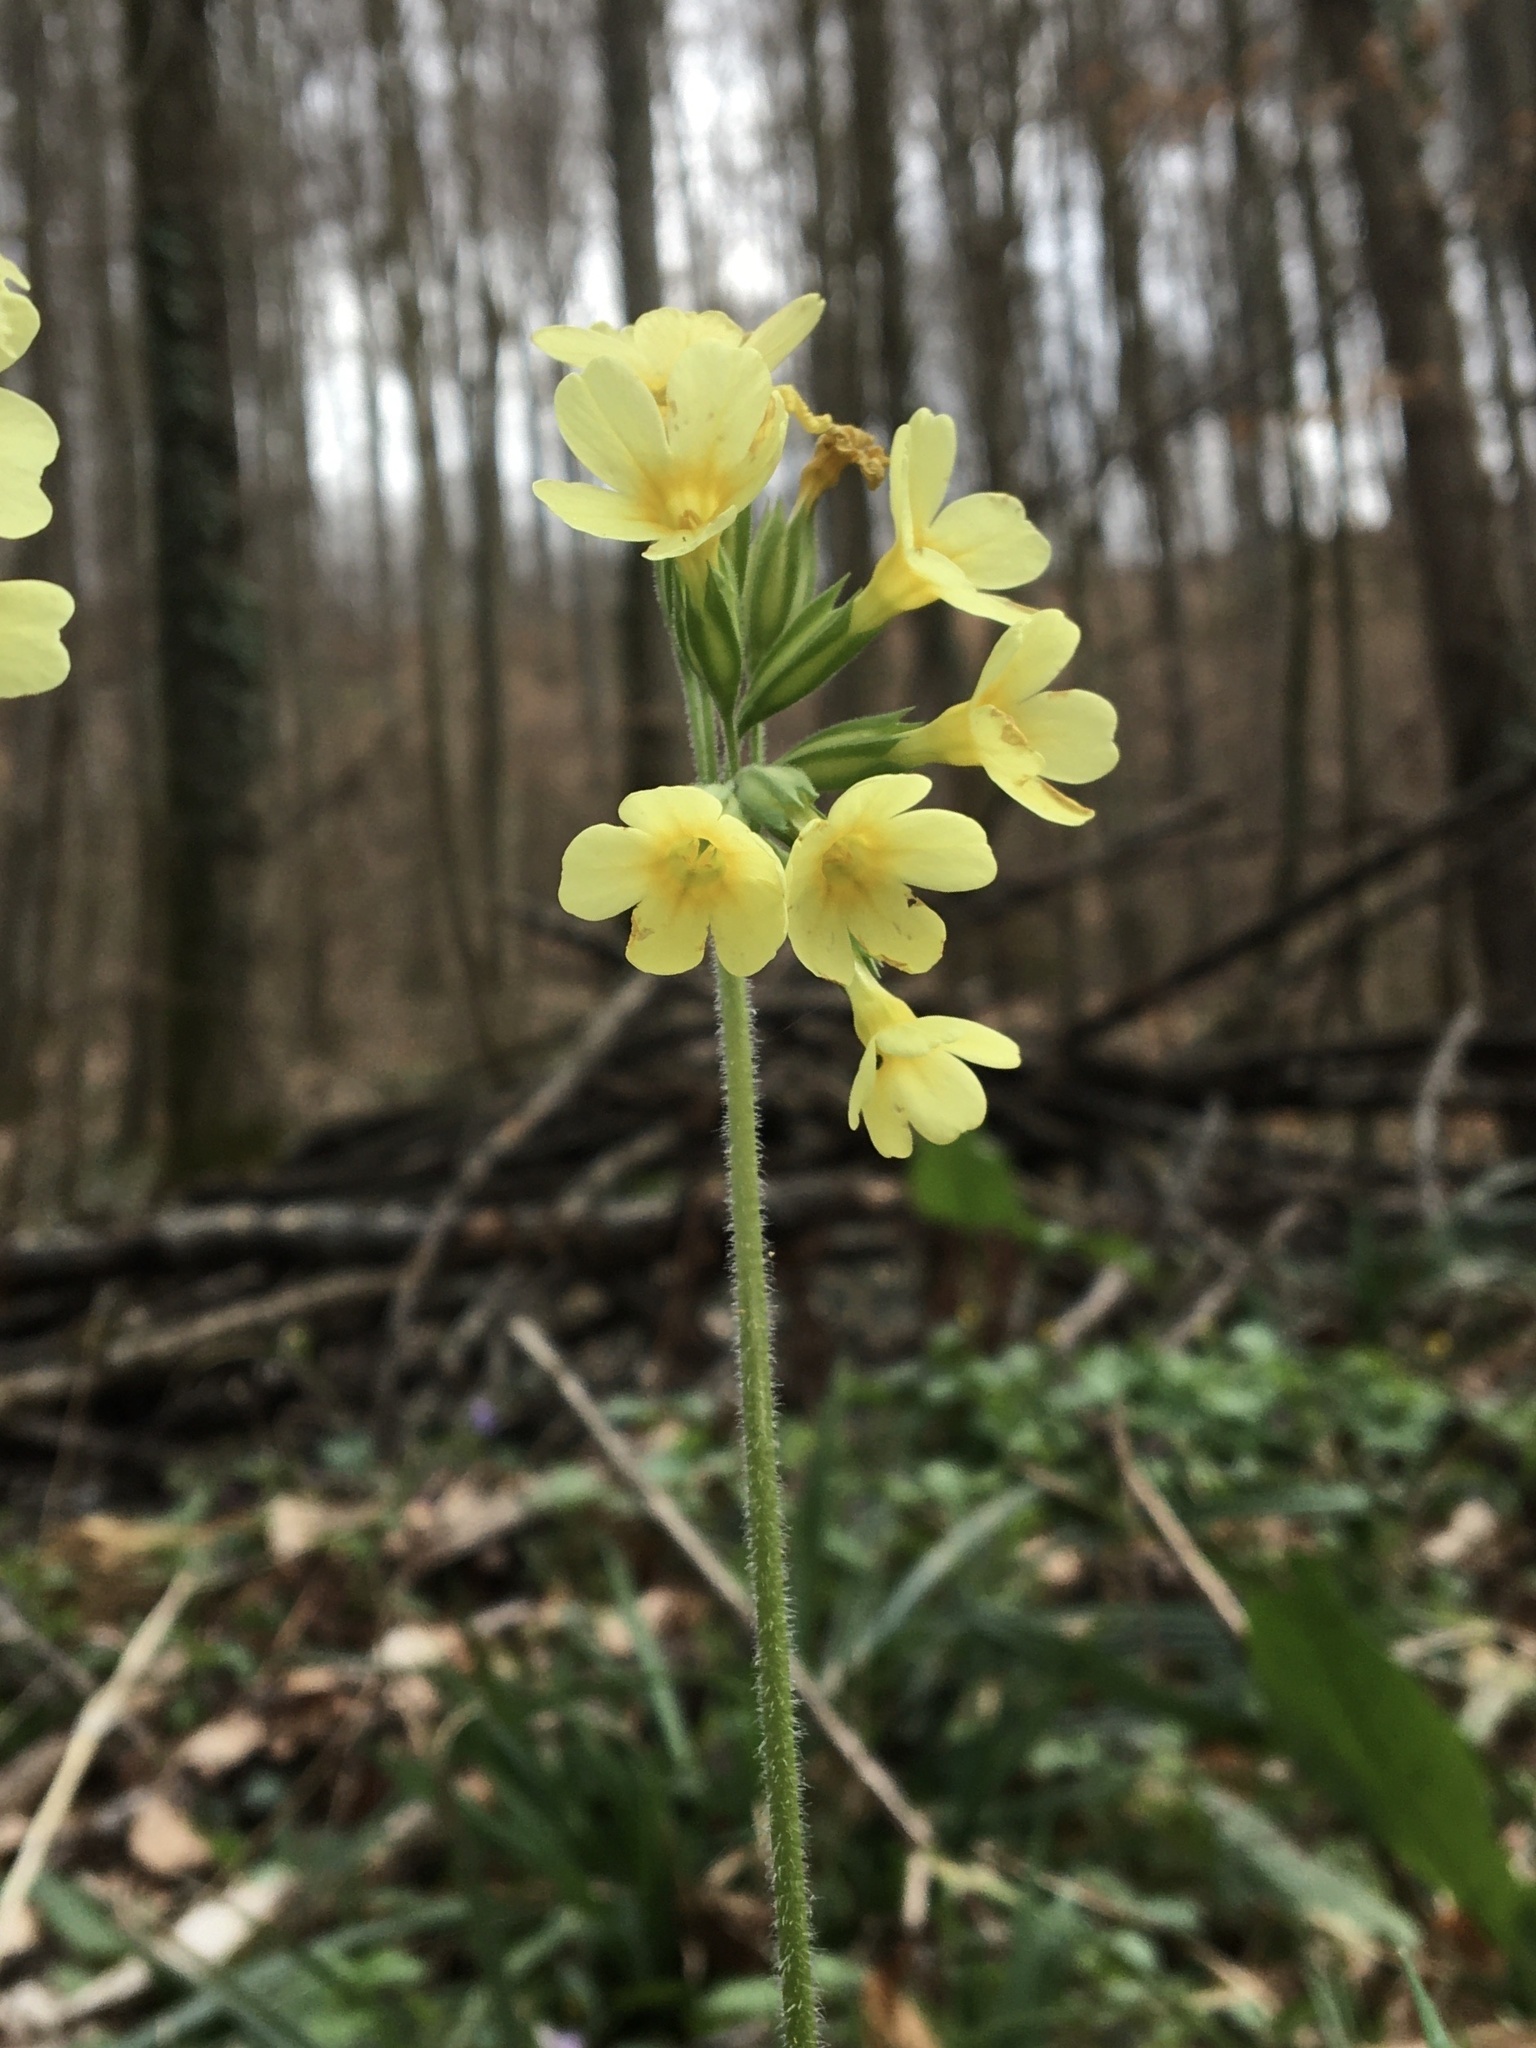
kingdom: Plantae
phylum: Tracheophyta
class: Magnoliopsida
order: Ericales
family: Primulaceae
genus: Primula
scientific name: Primula elatior
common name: Oxlip
